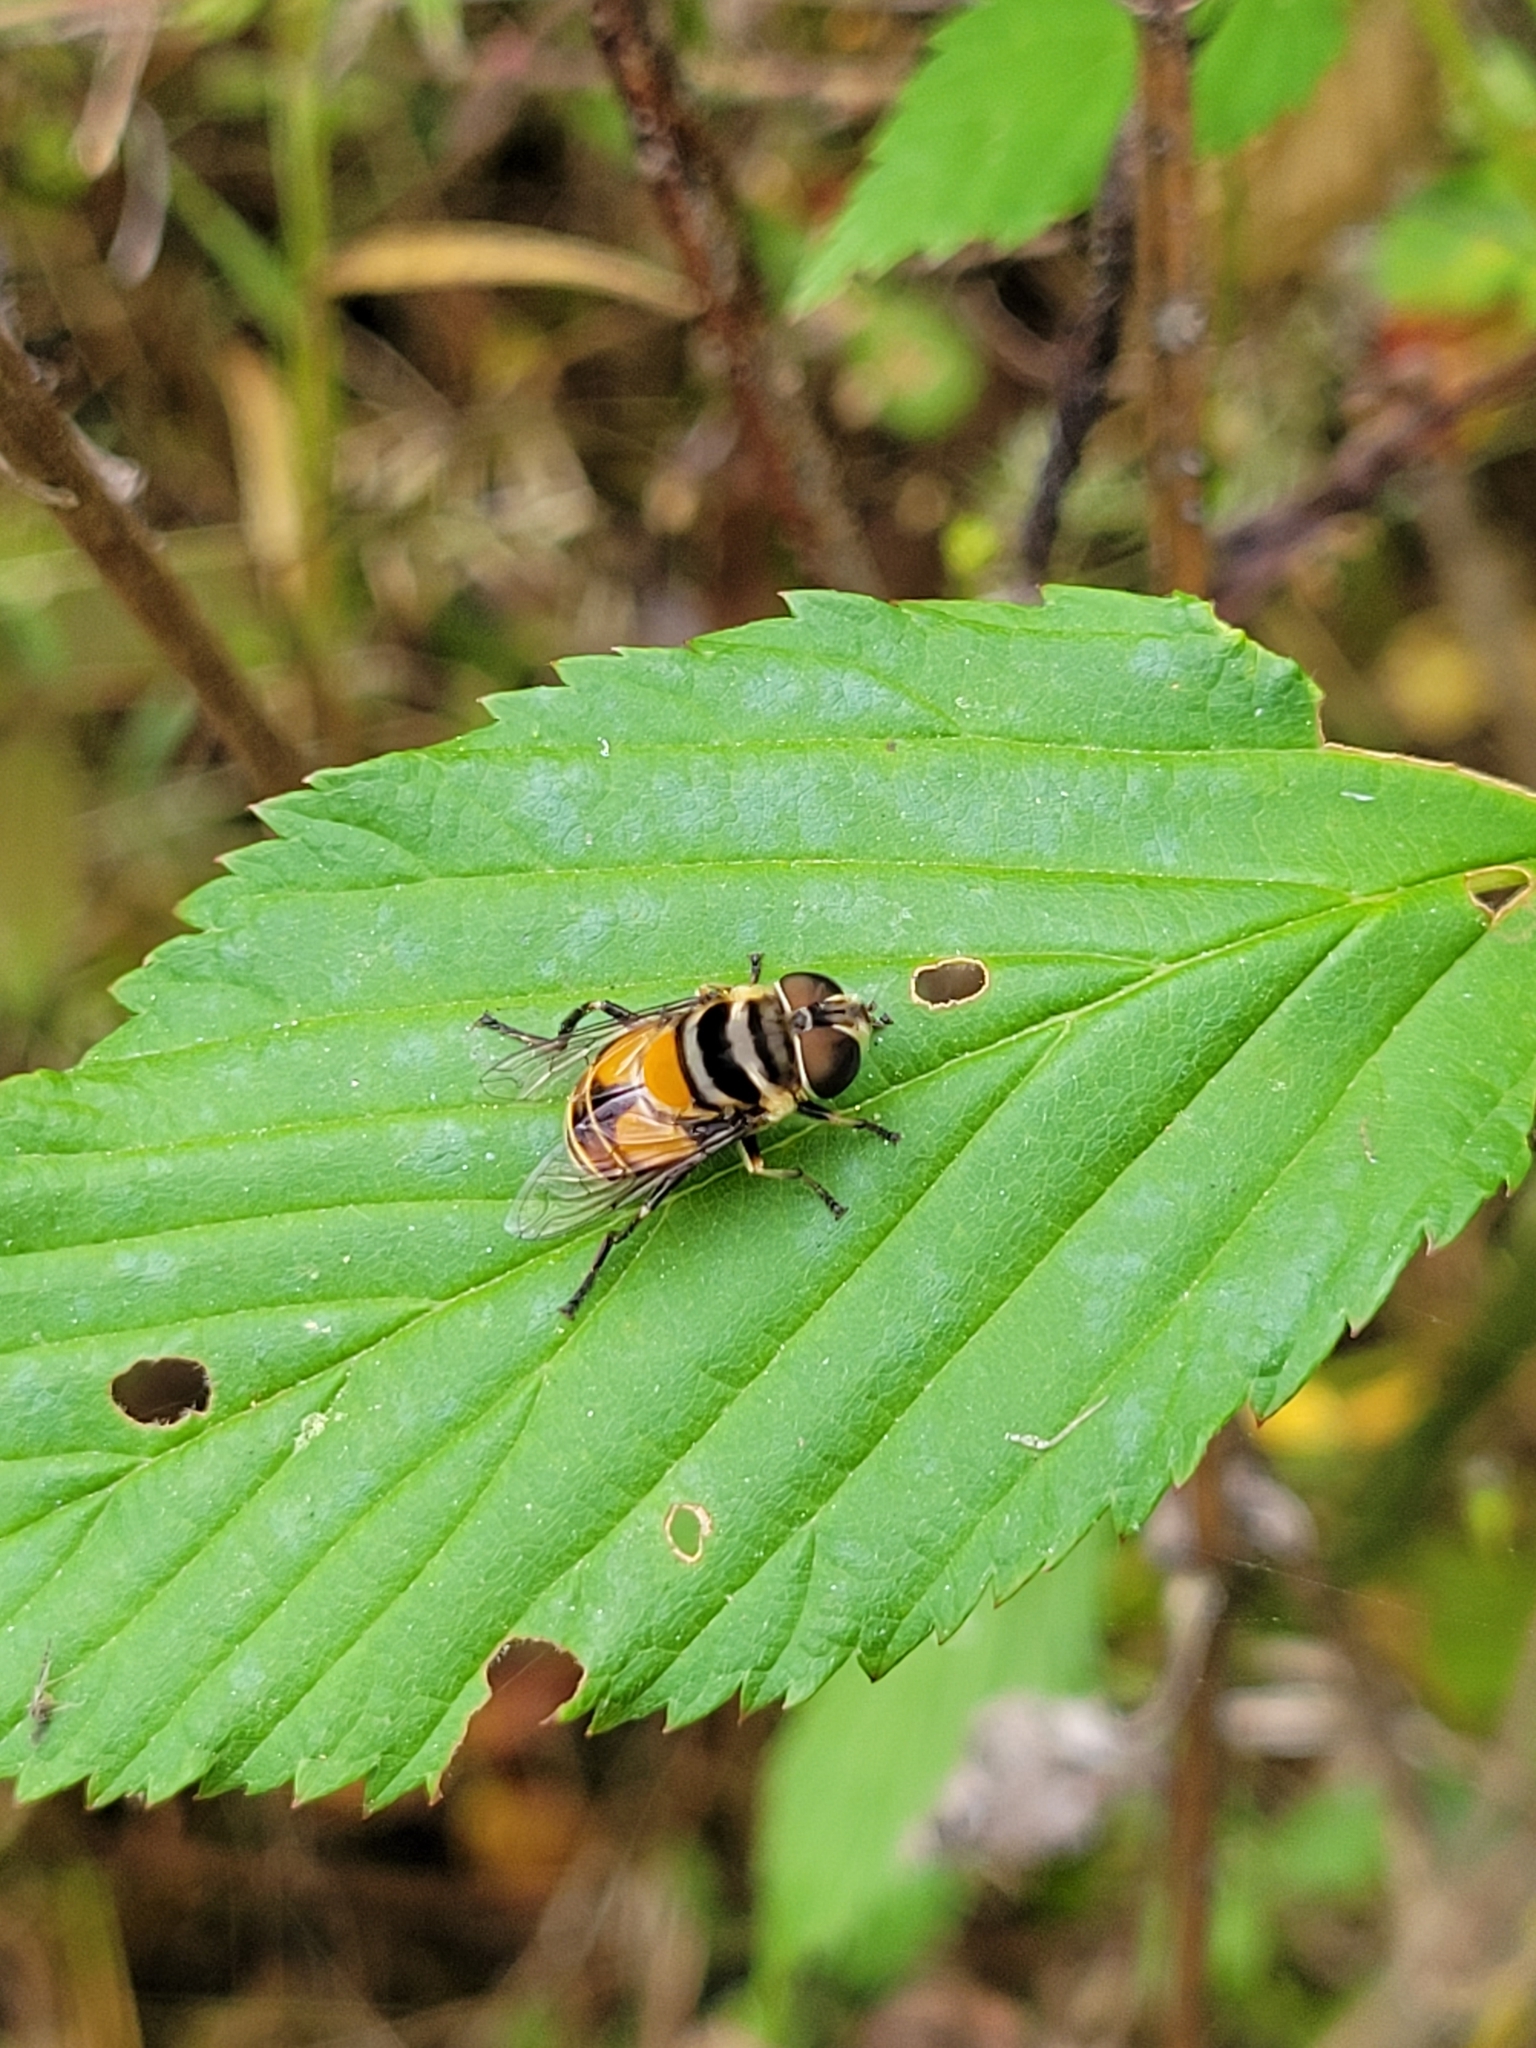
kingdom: Animalia
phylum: Arthropoda
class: Insecta
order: Diptera
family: Syrphidae
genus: Palpada
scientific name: Palpada agrorum
